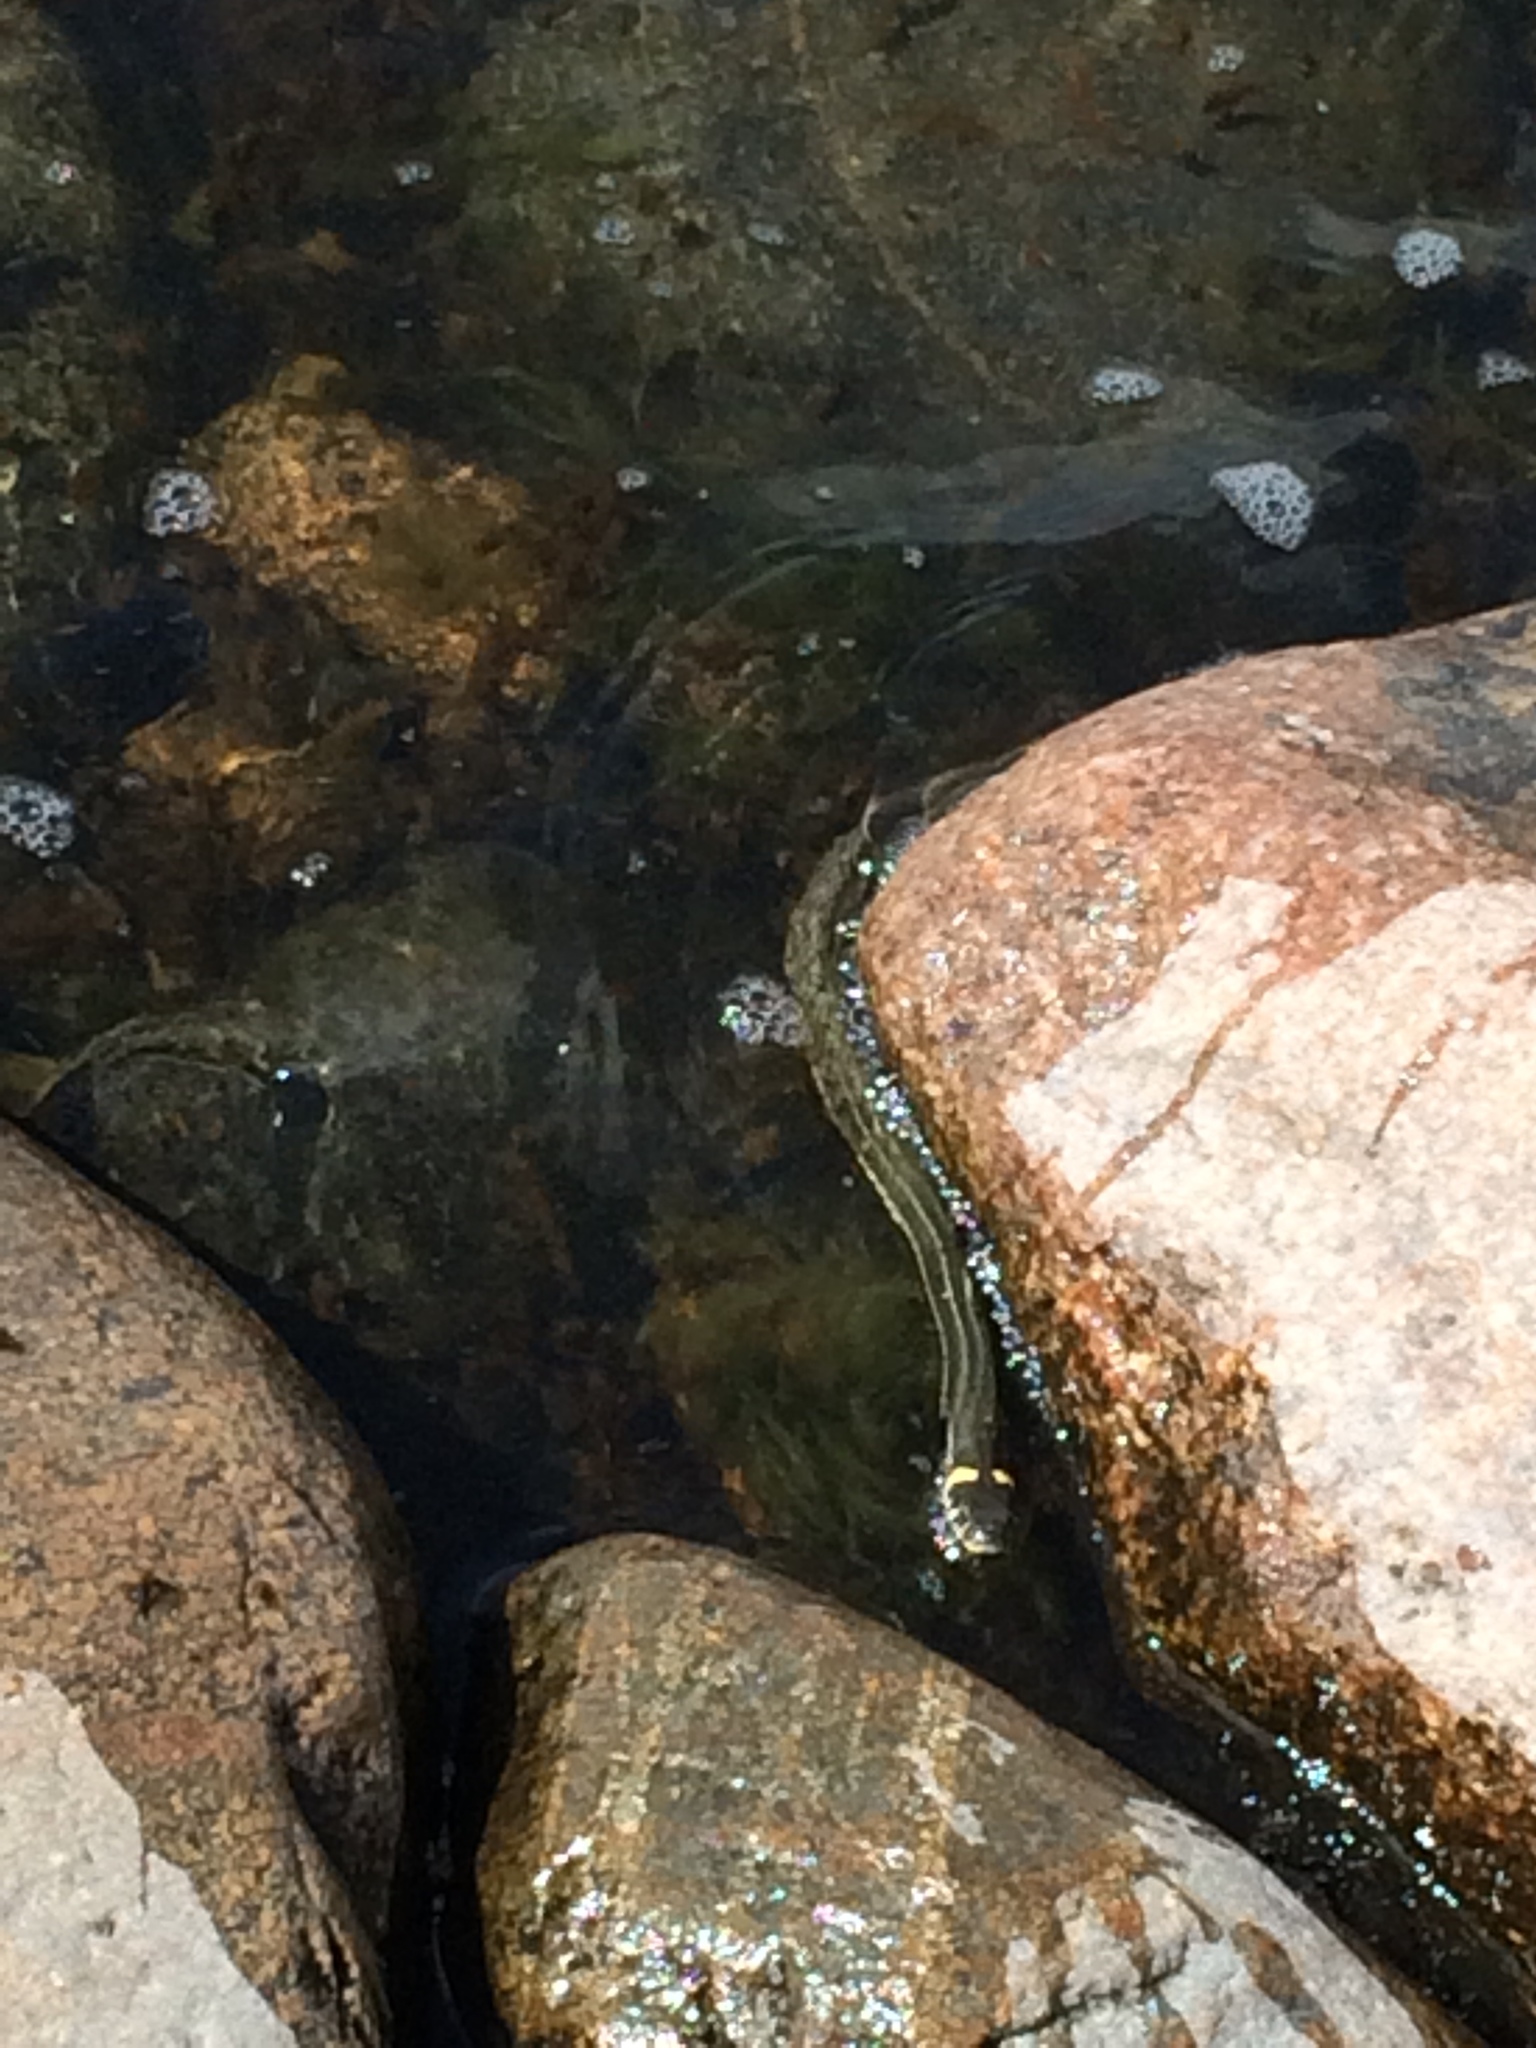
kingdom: Animalia
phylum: Chordata
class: Squamata
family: Colubridae
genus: Natrix
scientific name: Natrix natrix
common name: Grass snake
